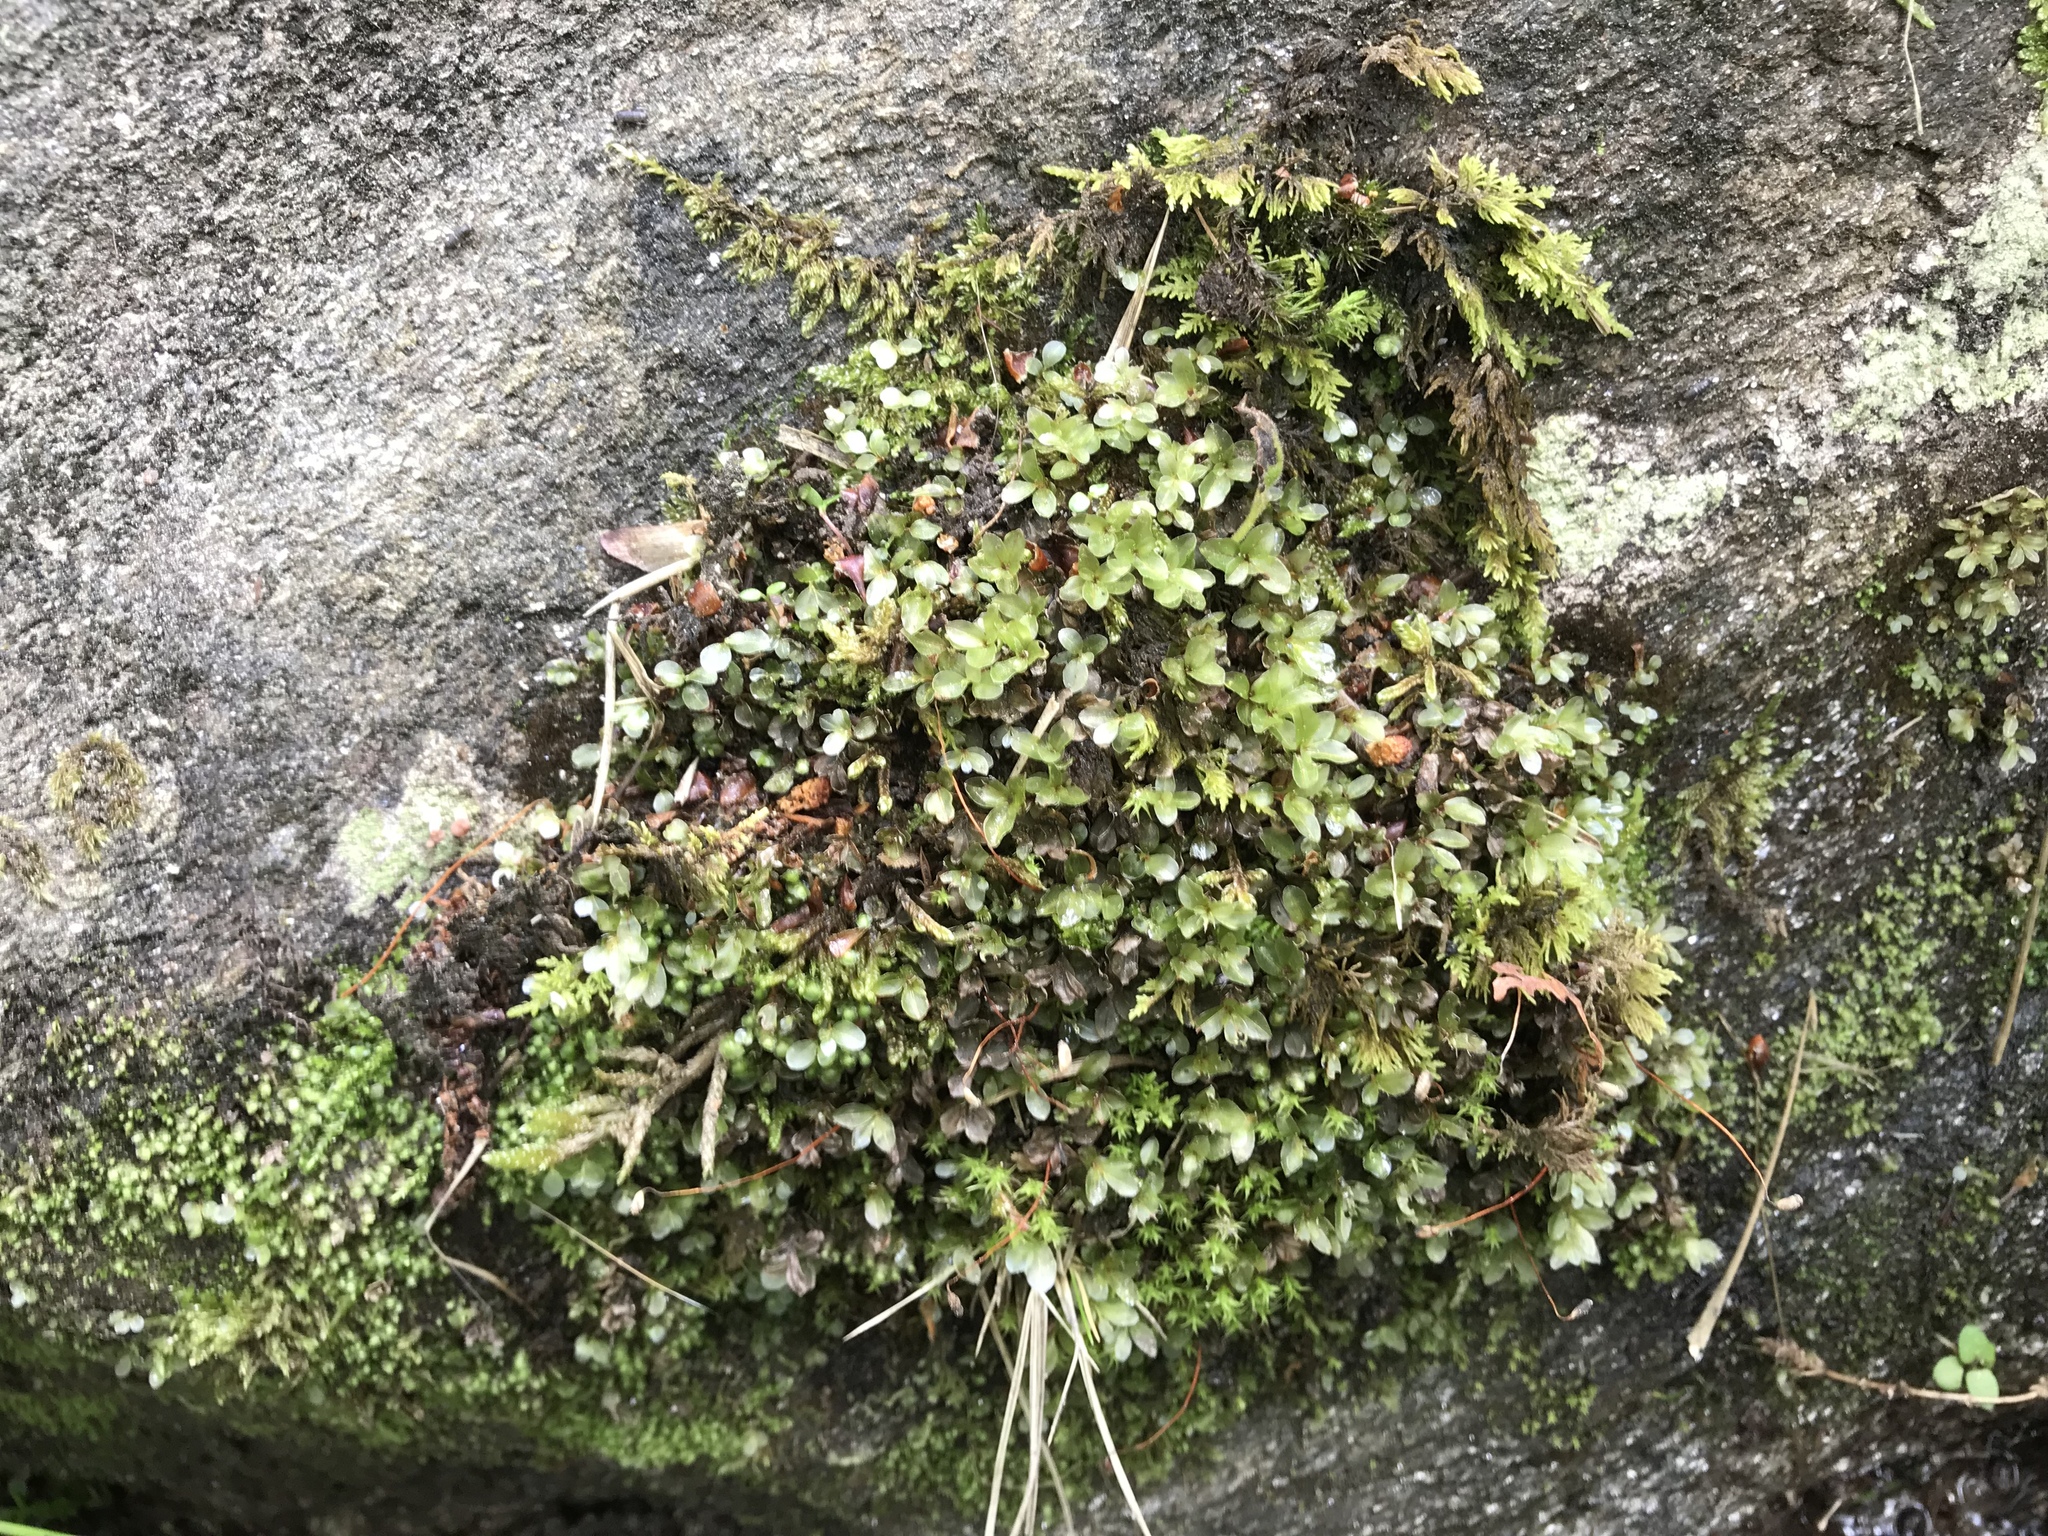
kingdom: Plantae
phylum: Bryophyta
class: Bryopsida
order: Bryales
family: Mniaceae
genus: Plagiomnium
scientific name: Plagiomnium ellipticum
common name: Marsh leafy moss
